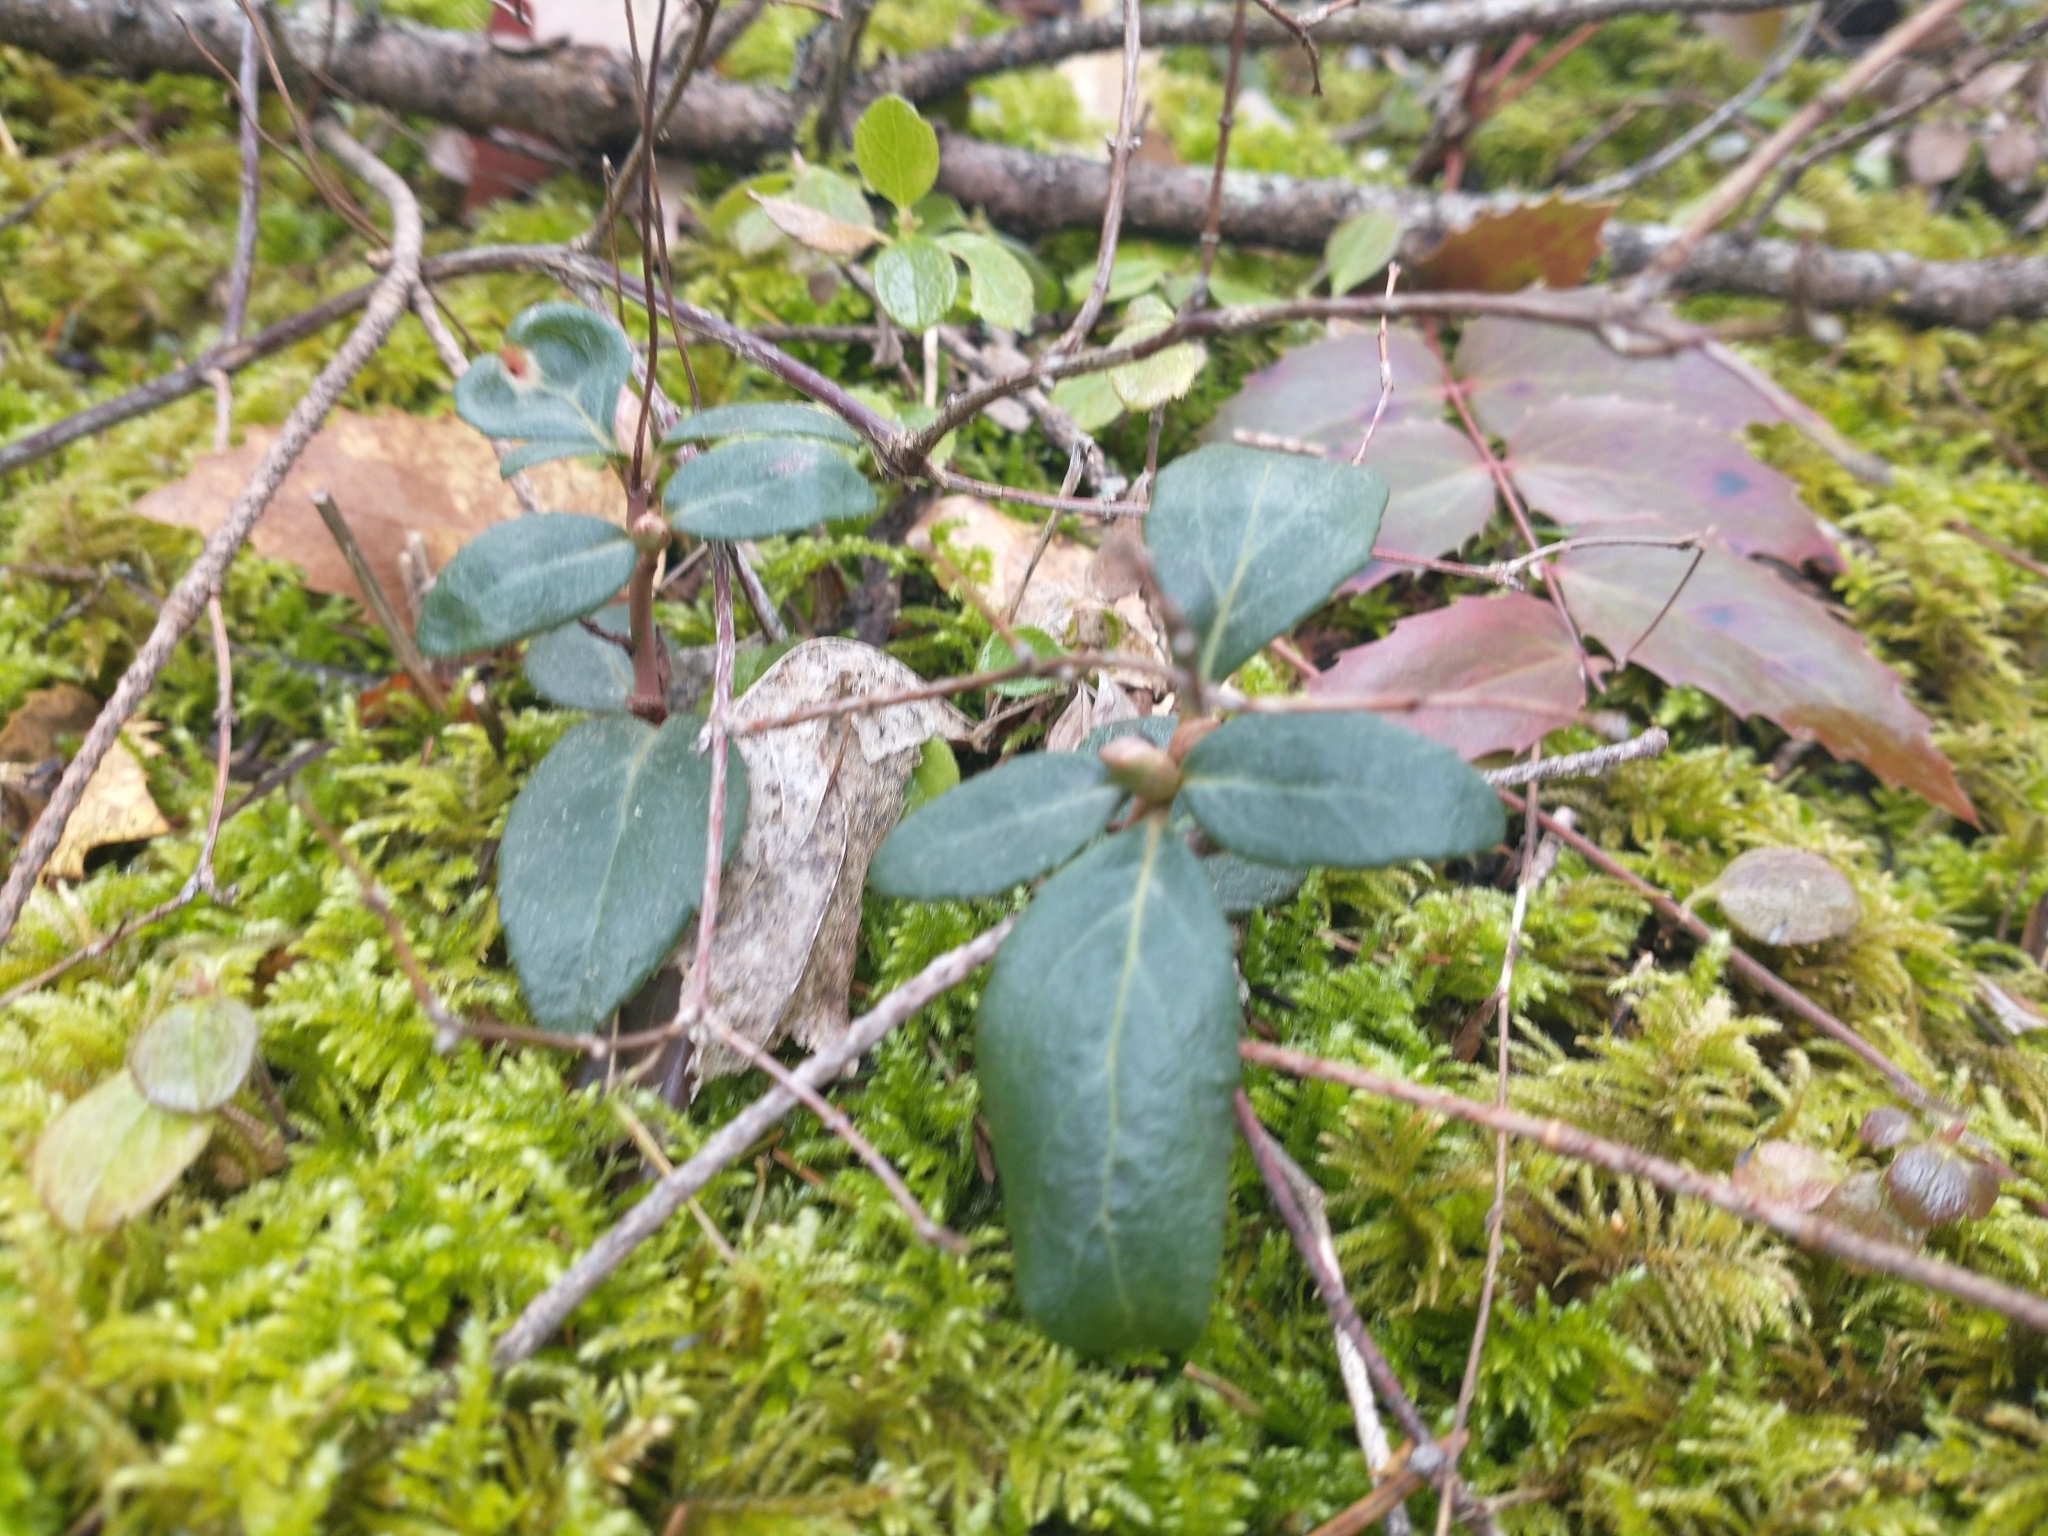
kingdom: Plantae
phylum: Tracheophyta
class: Magnoliopsida
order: Ericales
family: Ericaceae
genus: Chimaphila
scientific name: Chimaphila menziesii
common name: Menzies' pipsissewa
